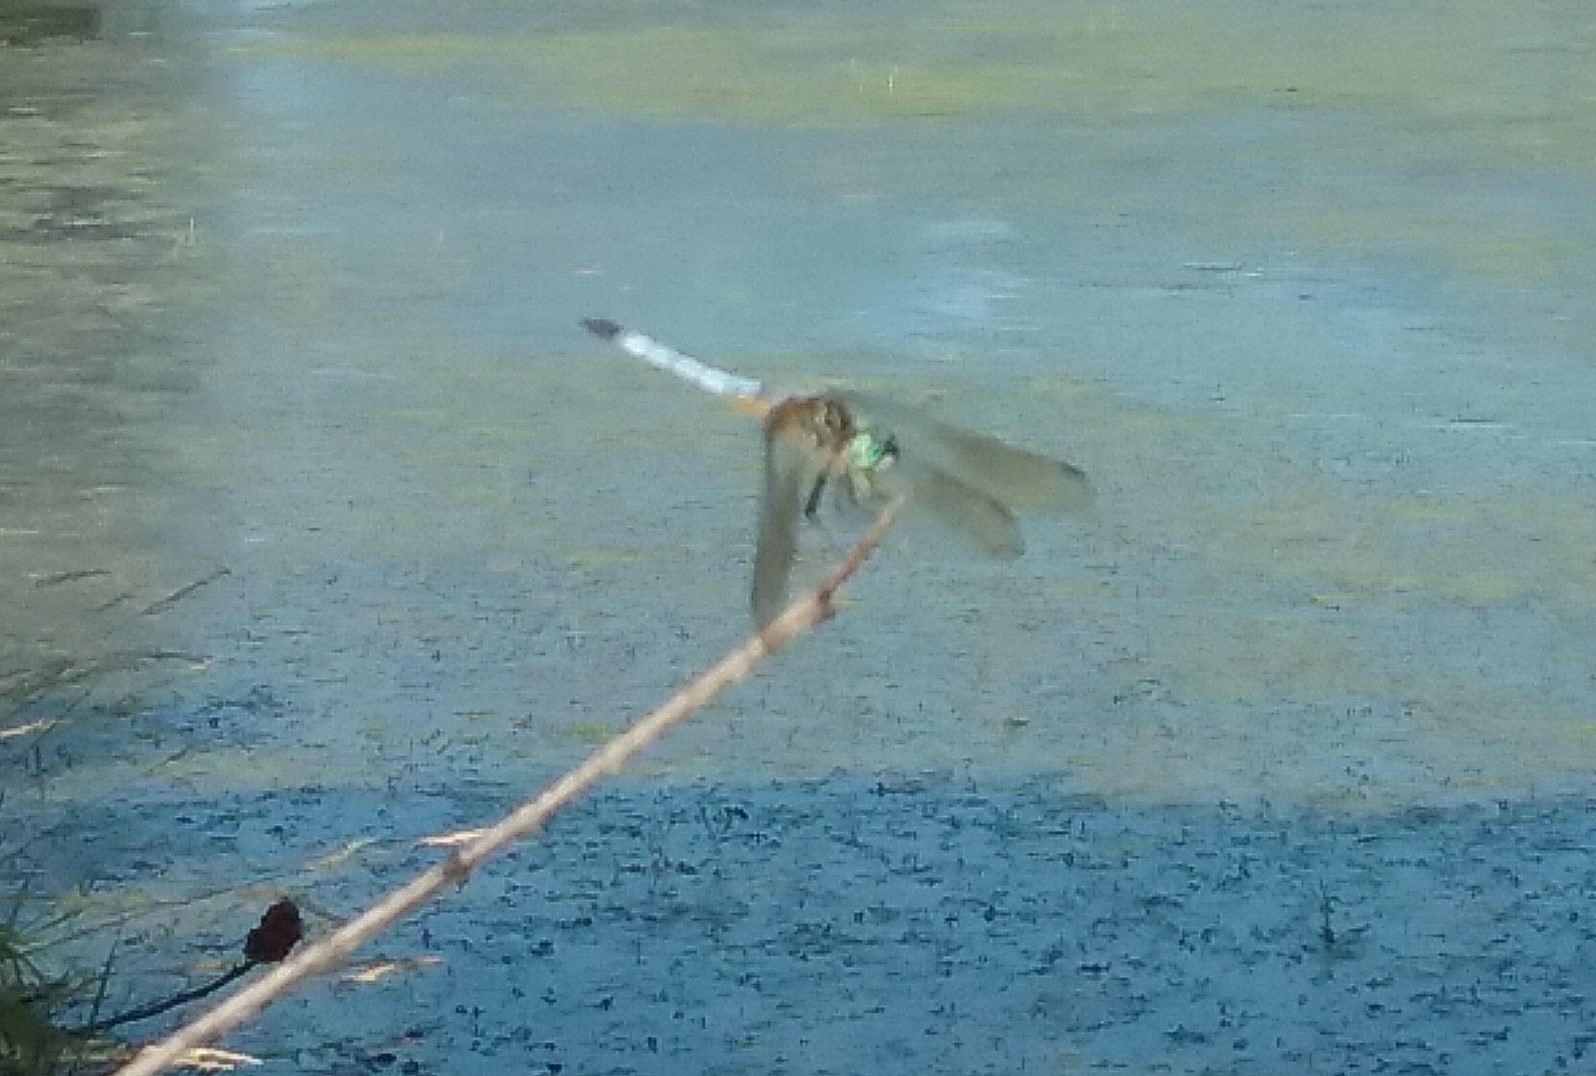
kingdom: Animalia
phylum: Arthropoda
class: Insecta
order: Odonata
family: Libellulidae
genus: Pachydiplax
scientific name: Pachydiplax longipennis
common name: Blue dasher
